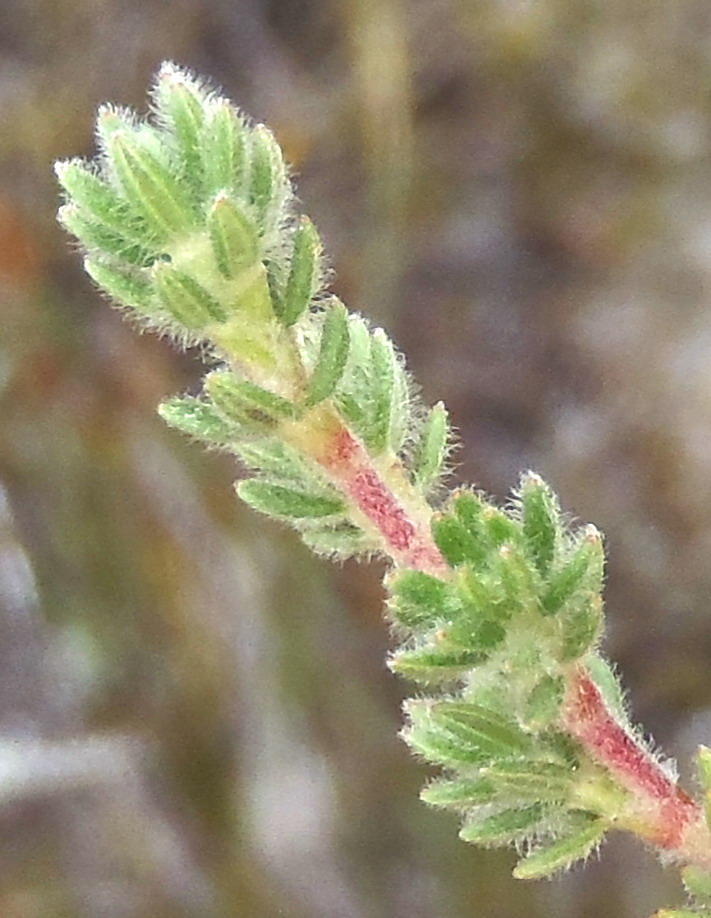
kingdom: Plantae
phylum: Tracheophyta
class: Magnoliopsida
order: Rosales
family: Rosaceae
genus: Cliffortia
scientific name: Cliffortia eriocephalina
